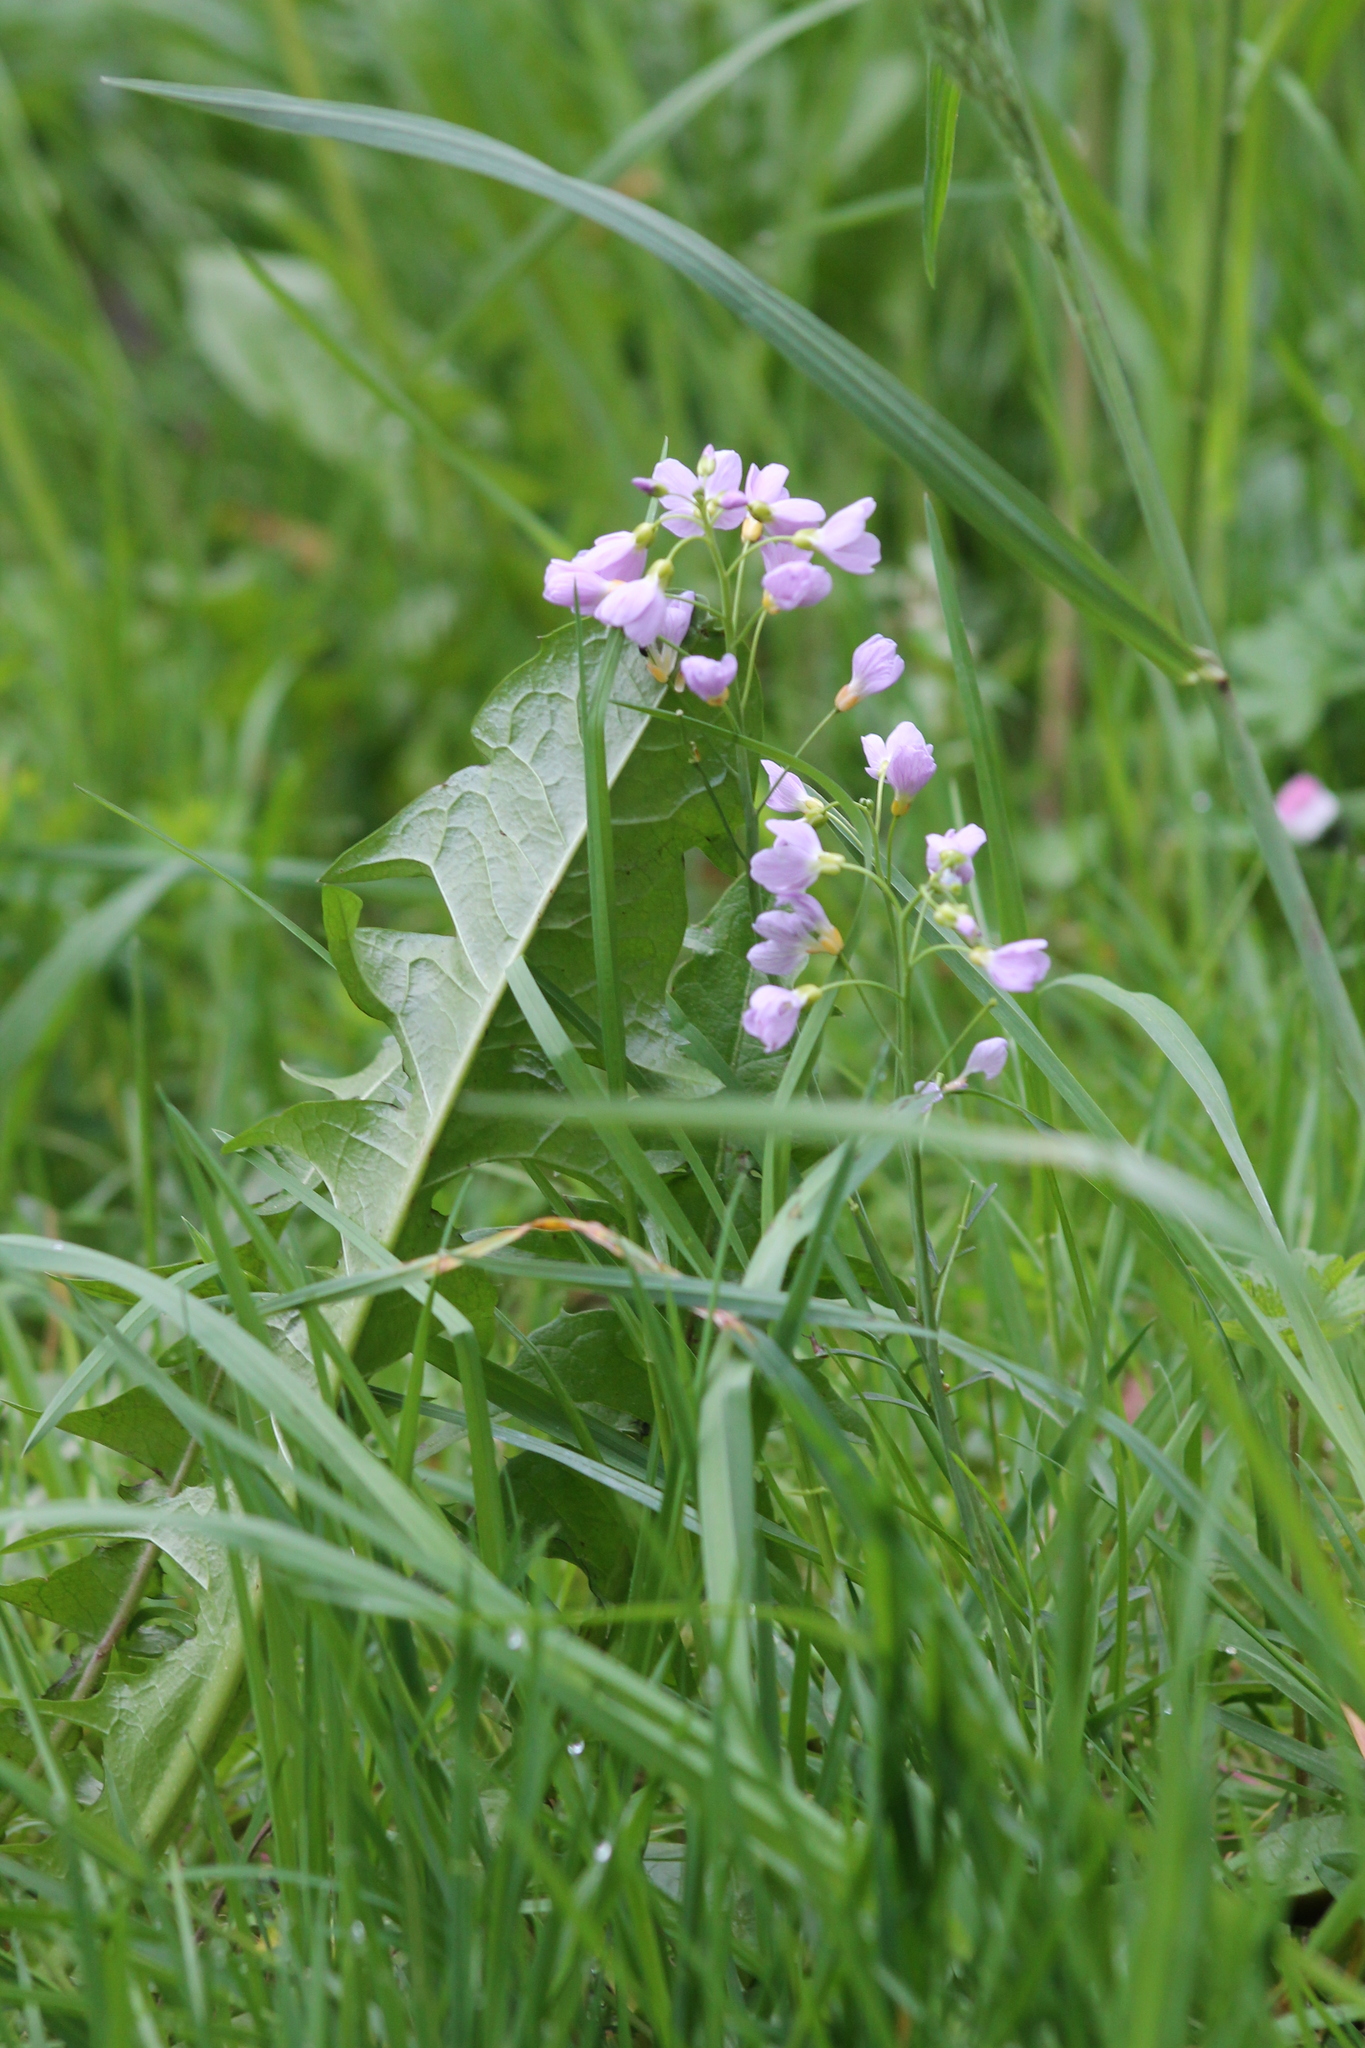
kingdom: Plantae
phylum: Tracheophyta
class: Magnoliopsida
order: Brassicales
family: Brassicaceae
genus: Cardamine
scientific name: Cardamine pratensis
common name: Cuckoo flower
